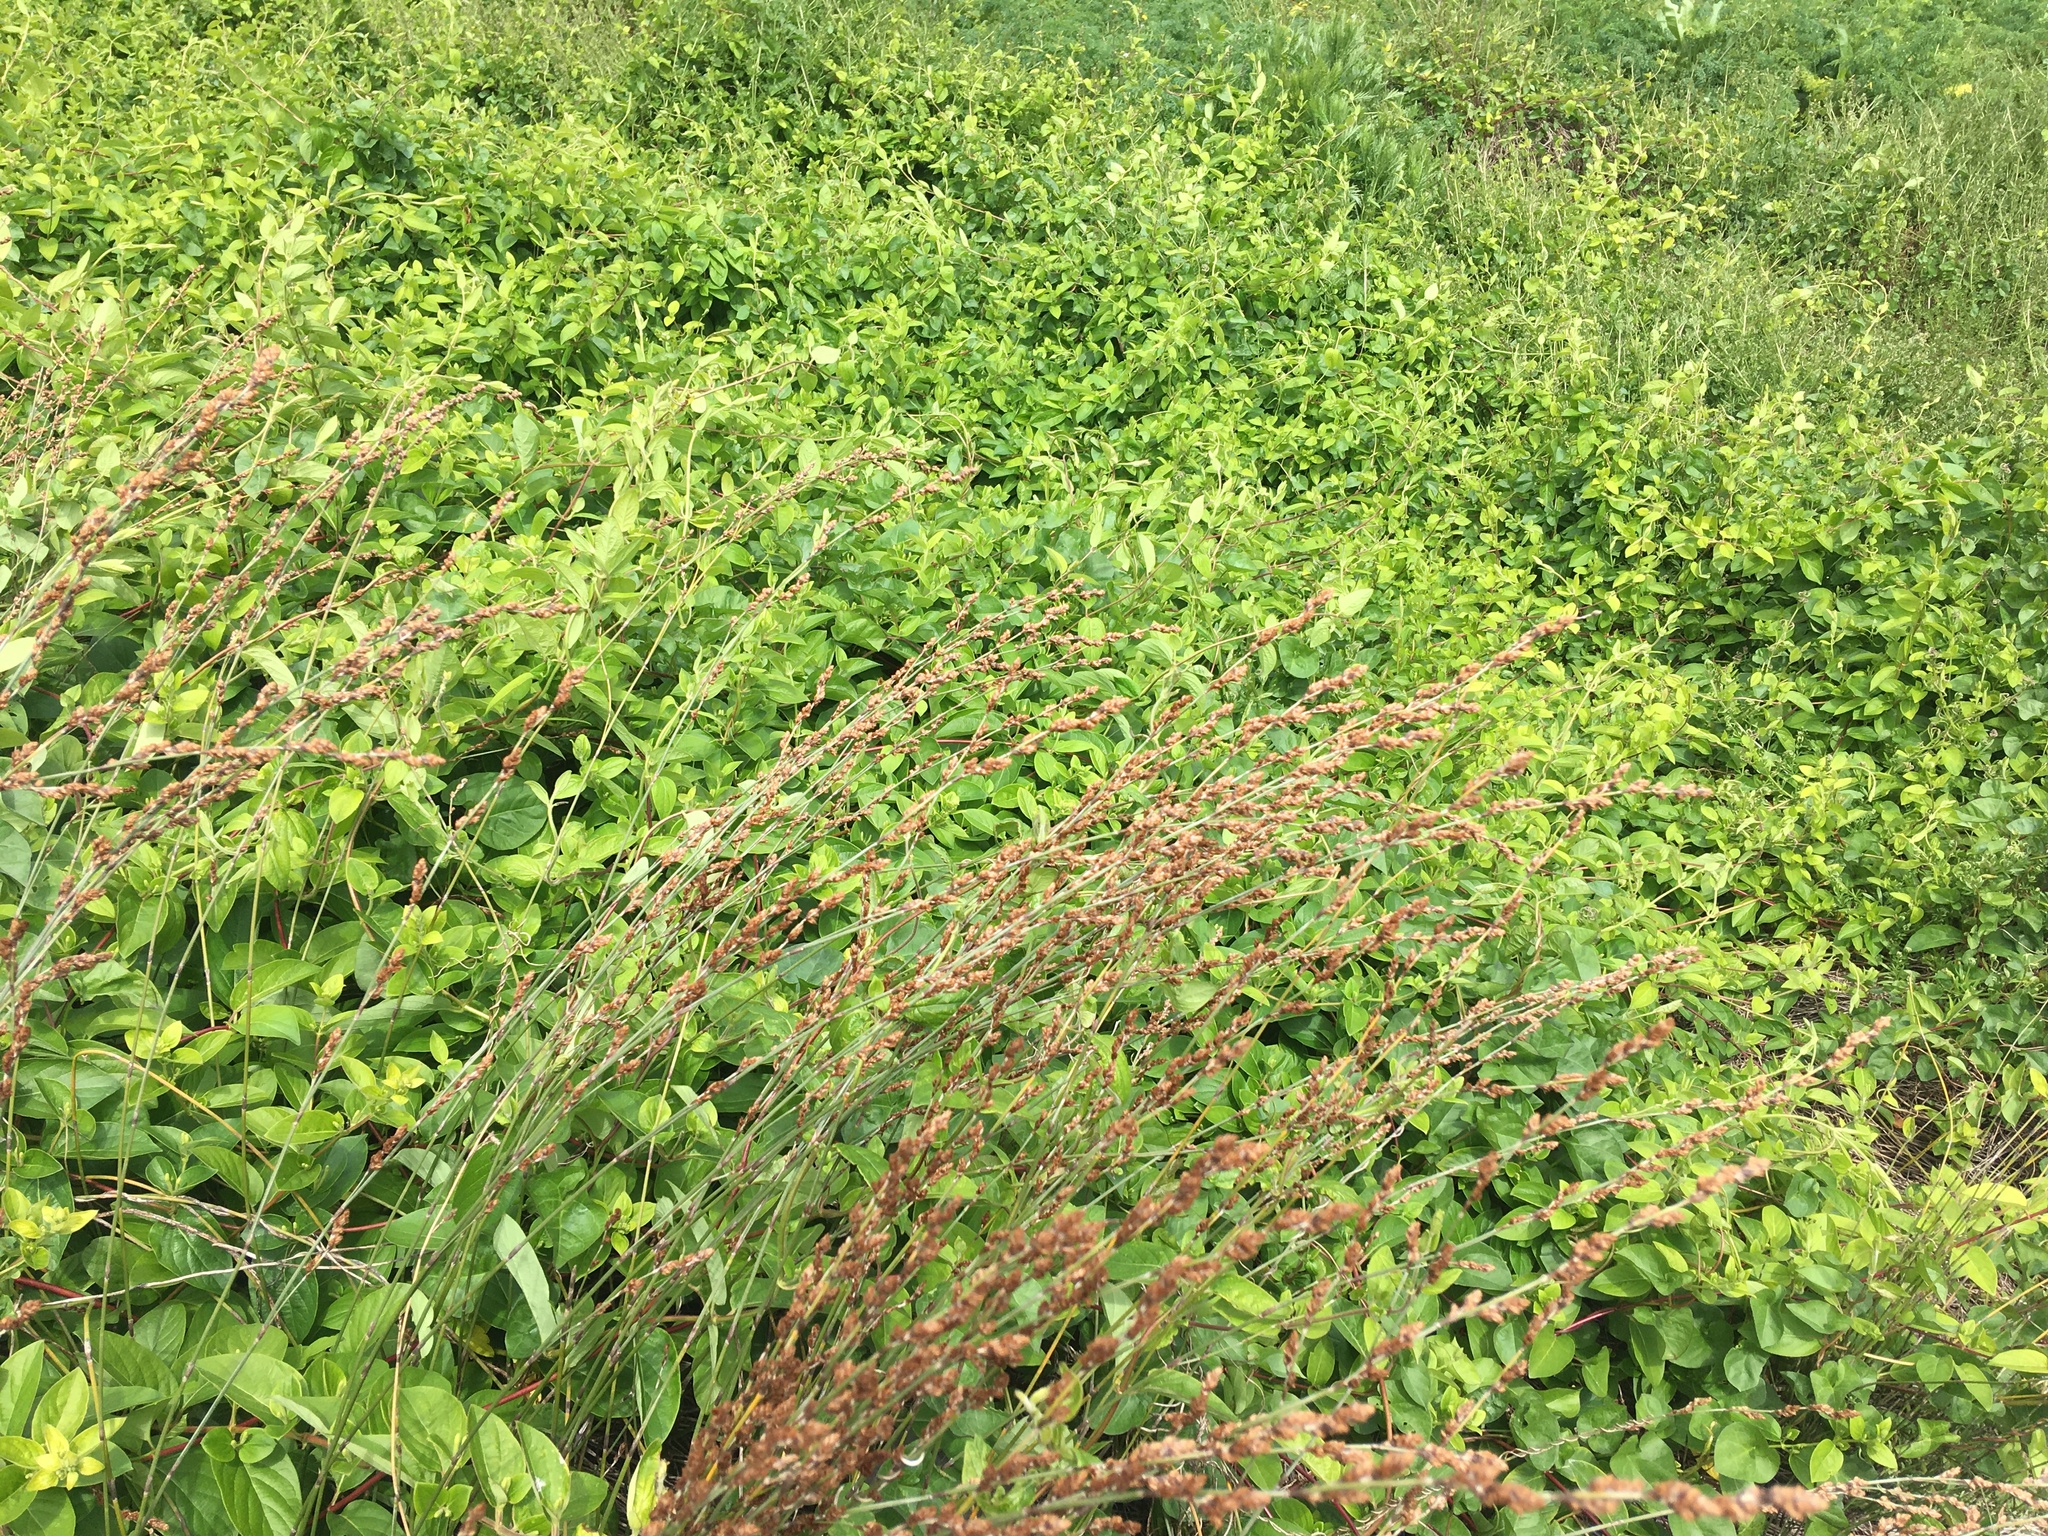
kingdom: Plantae
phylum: Tracheophyta
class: Liliopsida
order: Poales
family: Restionaceae
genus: Apodasmia
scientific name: Apodasmia similis
